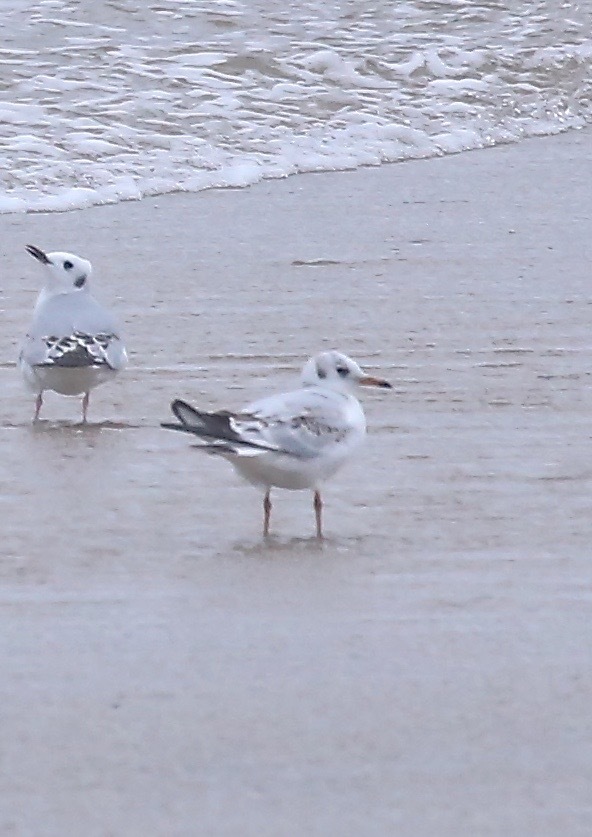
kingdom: Animalia
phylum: Chordata
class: Aves
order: Charadriiformes
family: Laridae
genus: Chroicocephalus
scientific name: Chroicocephalus ridibundus
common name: Black-headed gull
